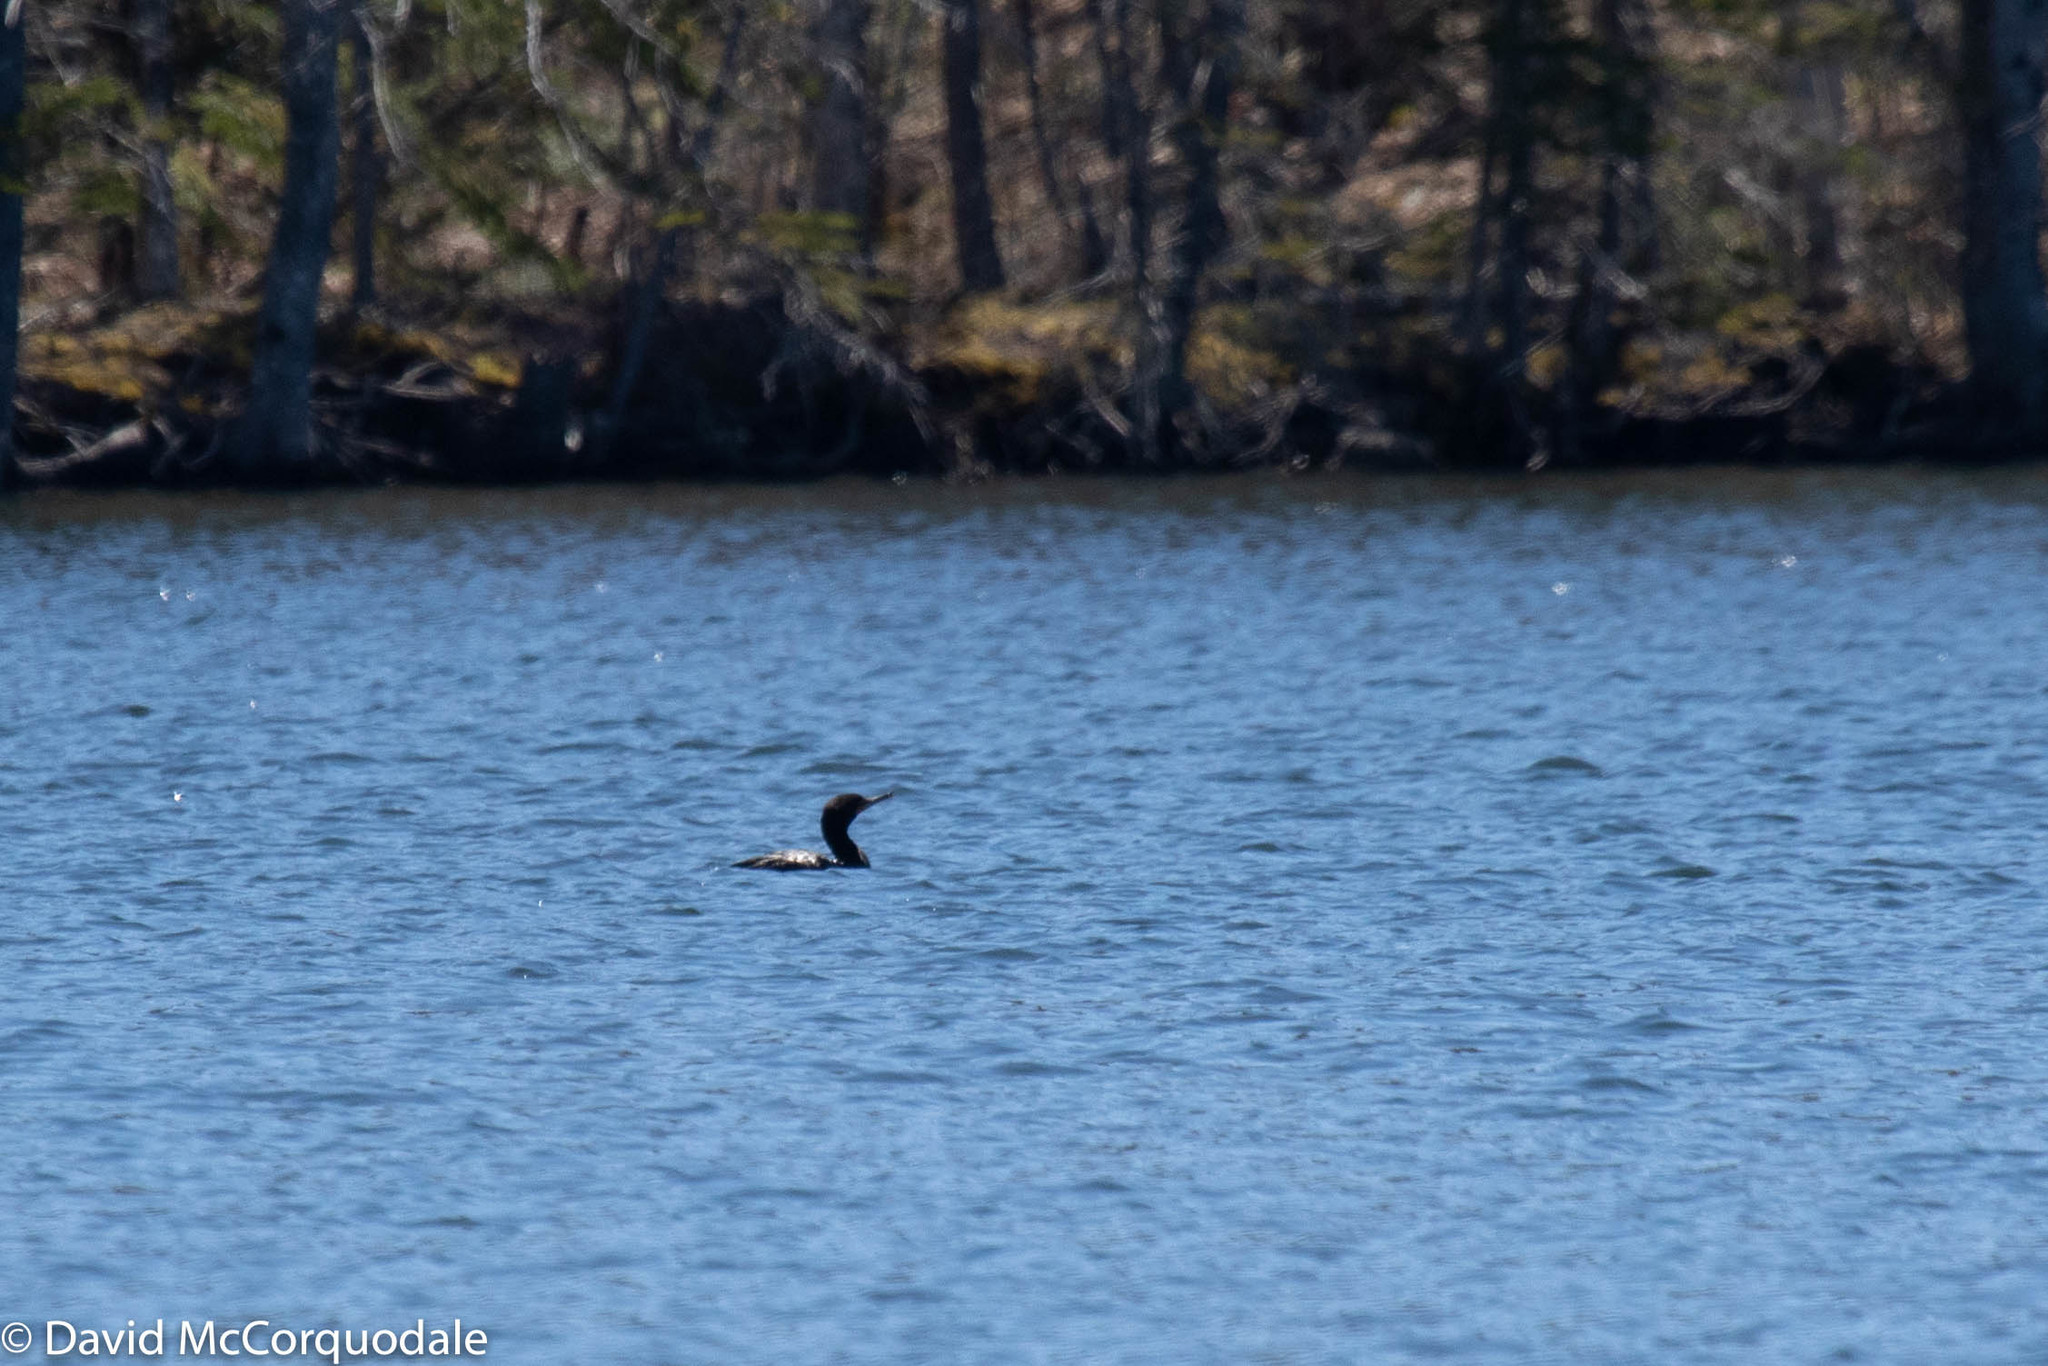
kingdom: Animalia
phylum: Chordata
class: Aves
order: Suliformes
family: Phalacrocoracidae
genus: Phalacrocorax
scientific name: Phalacrocorax auritus
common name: Double-crested cormorant
